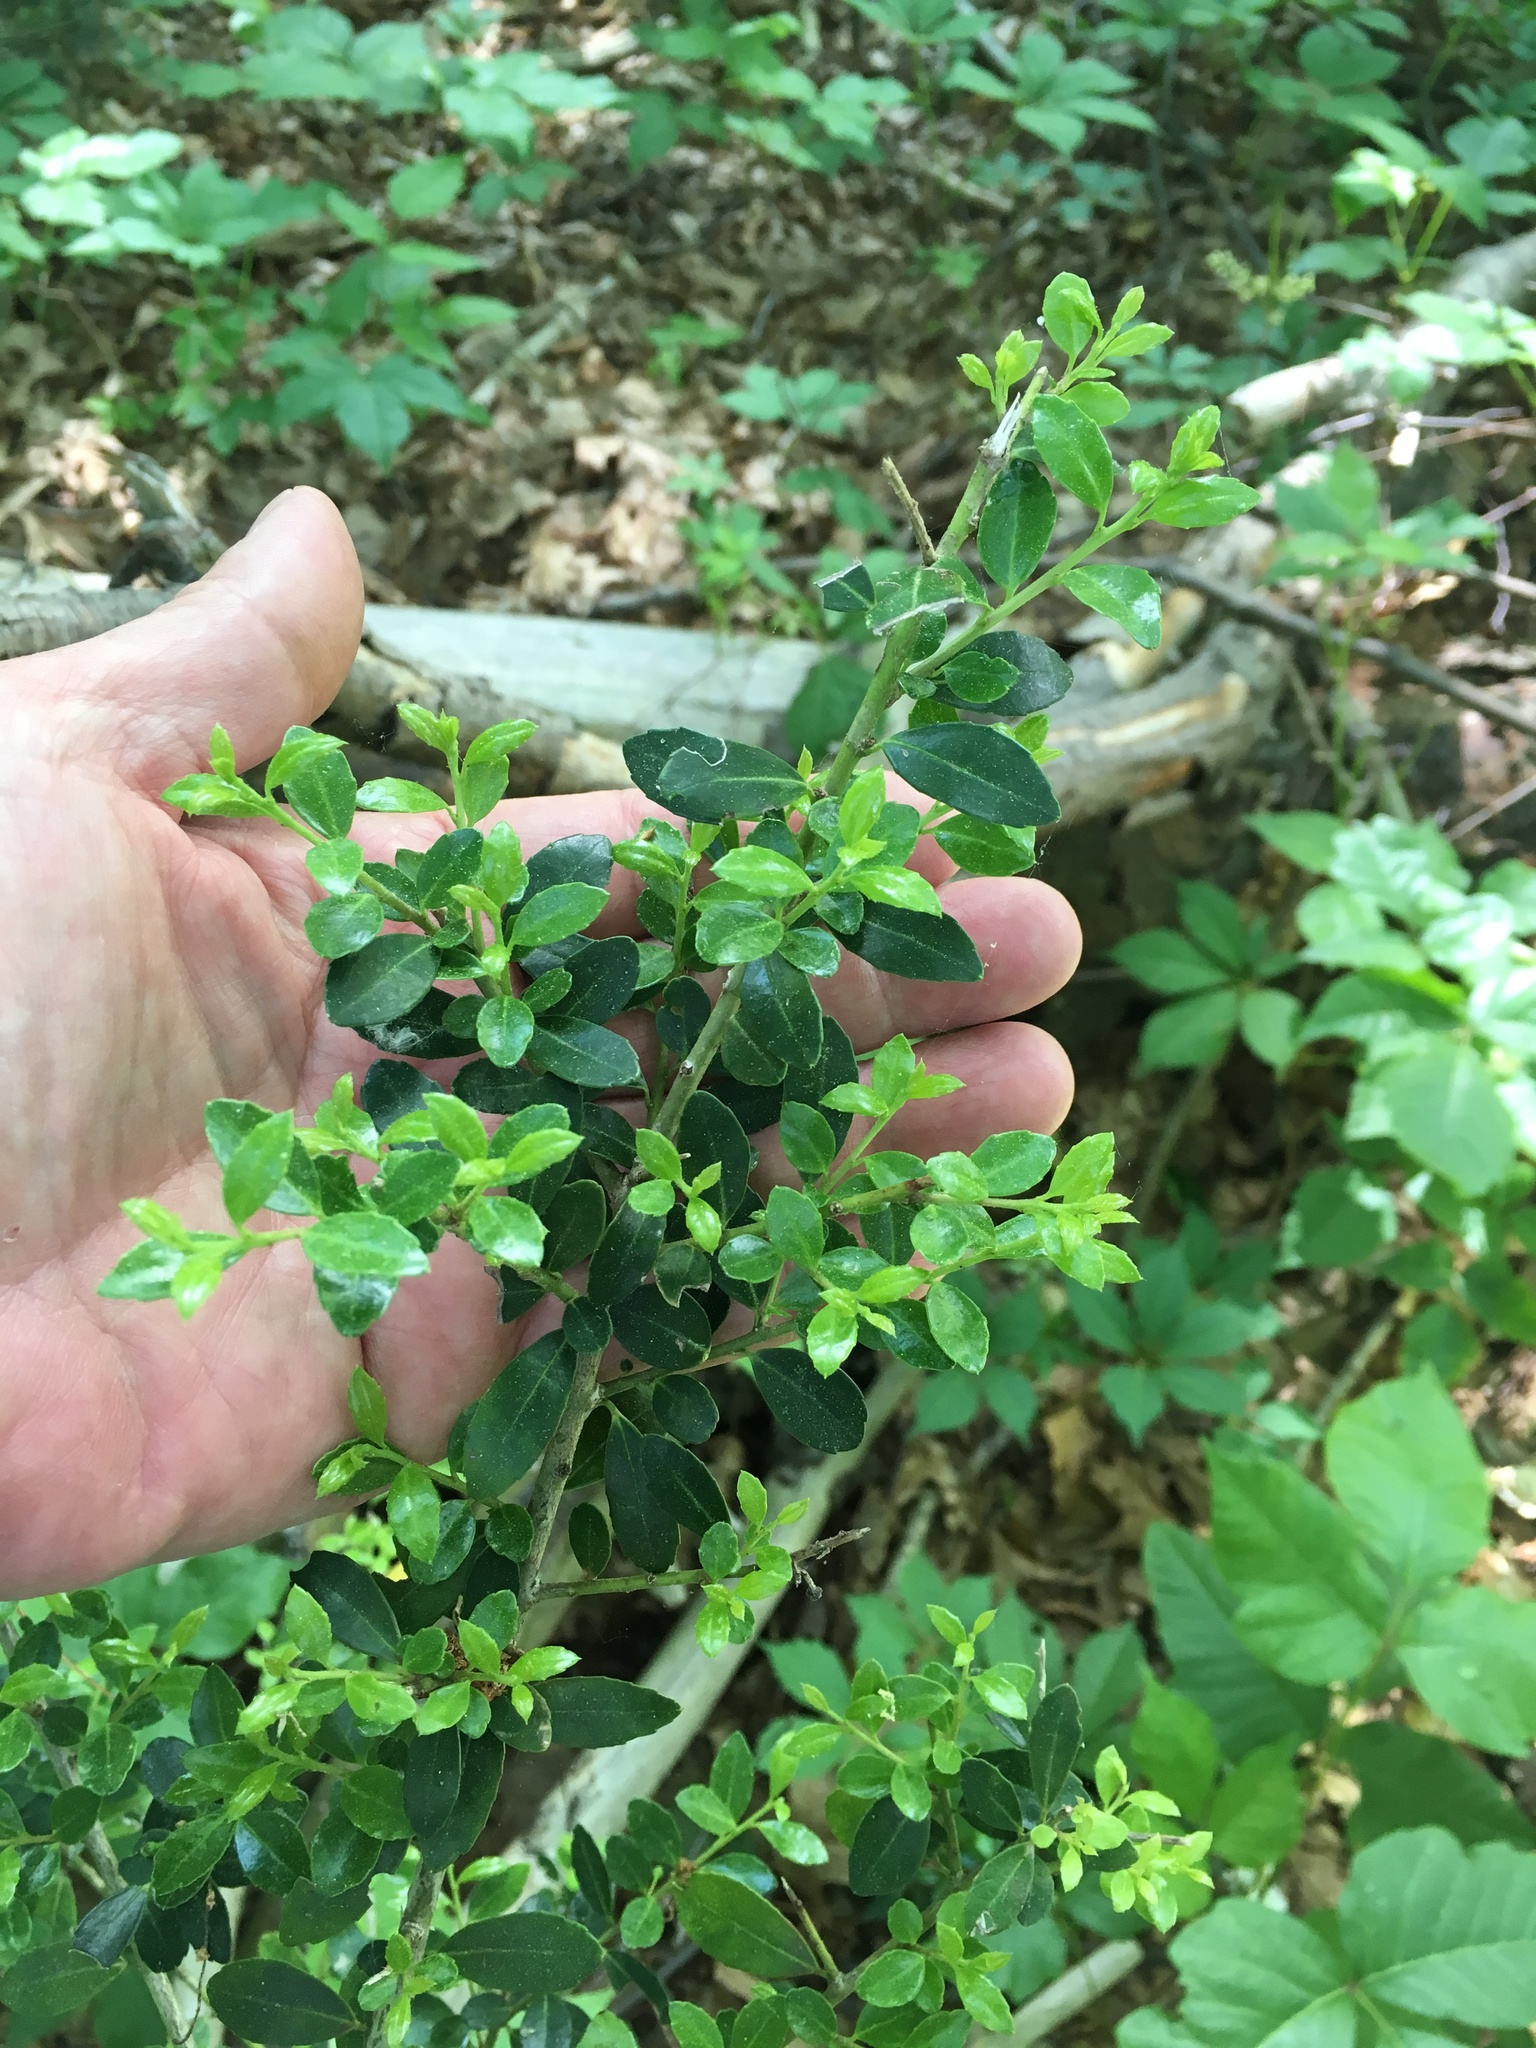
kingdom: Plantae
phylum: Tracheophyta
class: Magnoliopsida
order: Aquifoliales
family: Aquifoliaceae
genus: Ilex
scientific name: Ilex crenata
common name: Japanese holly
